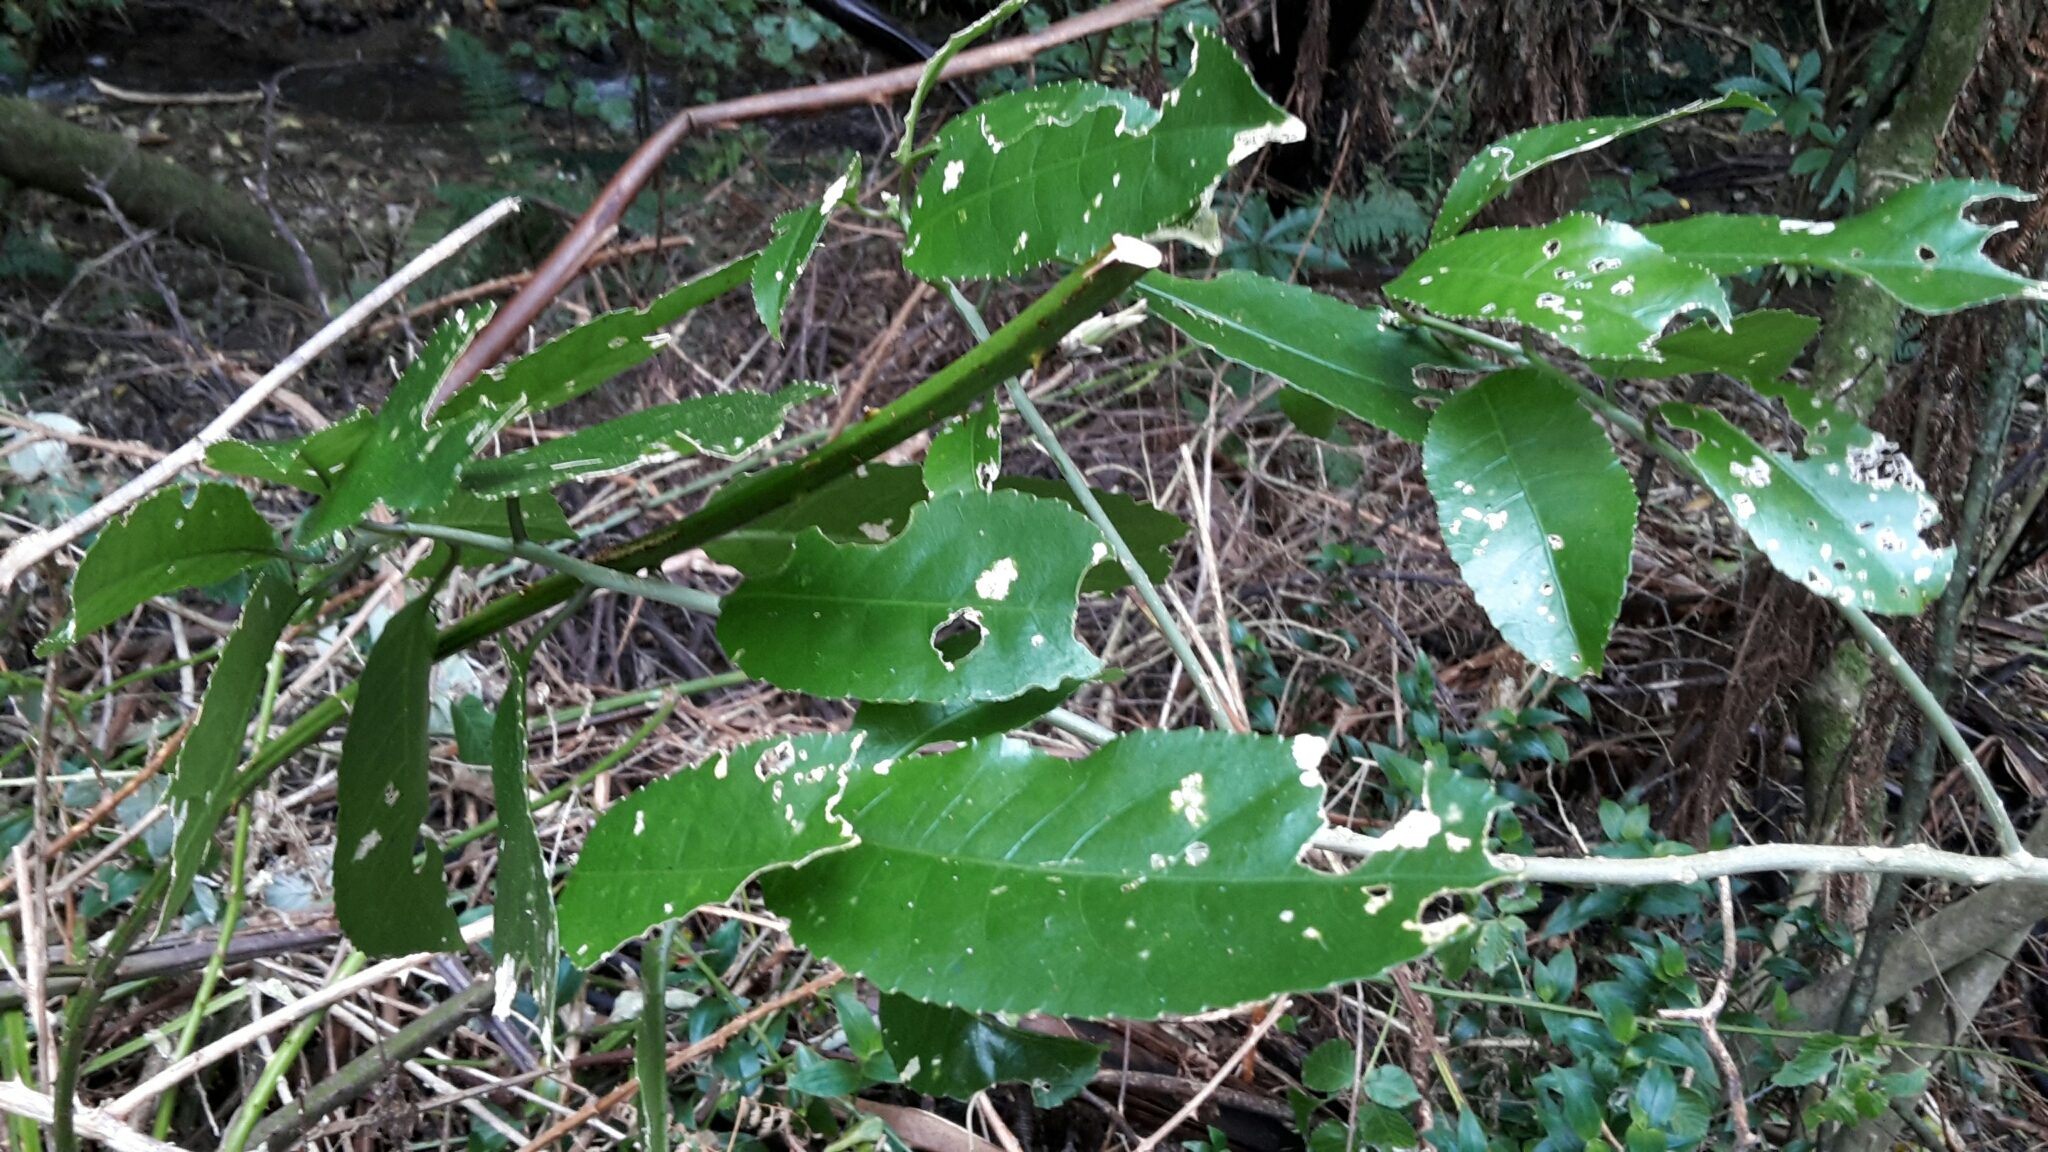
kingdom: Plantae
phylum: Tracheophyta
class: Magnoliopsida
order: Malpighiales
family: Violaceae
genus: Melicytus
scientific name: Melicytus ramiflorus
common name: Mahoe
